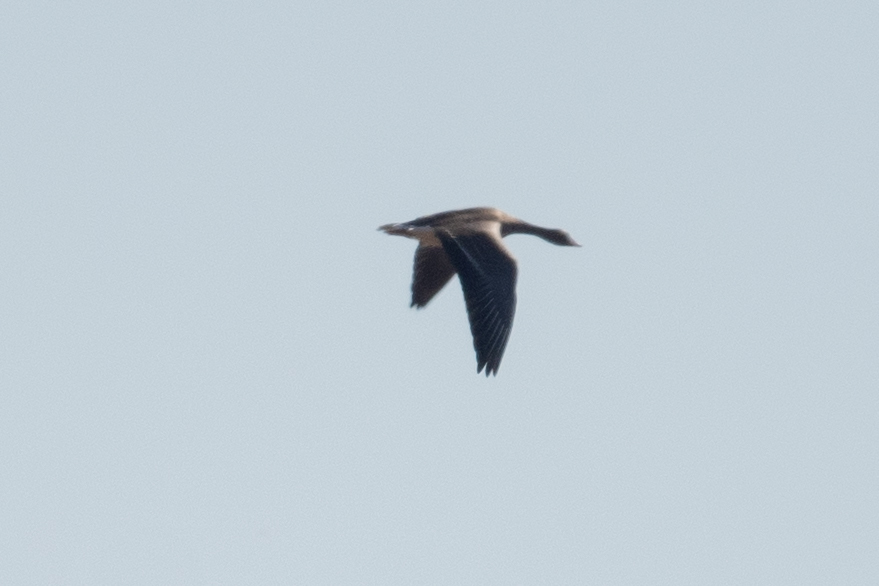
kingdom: Animalia
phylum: Chordata
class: Aves
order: Anseriformes
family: Anatidae
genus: Anser
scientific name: Anser albifrons
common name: Greater white-fronted goose
